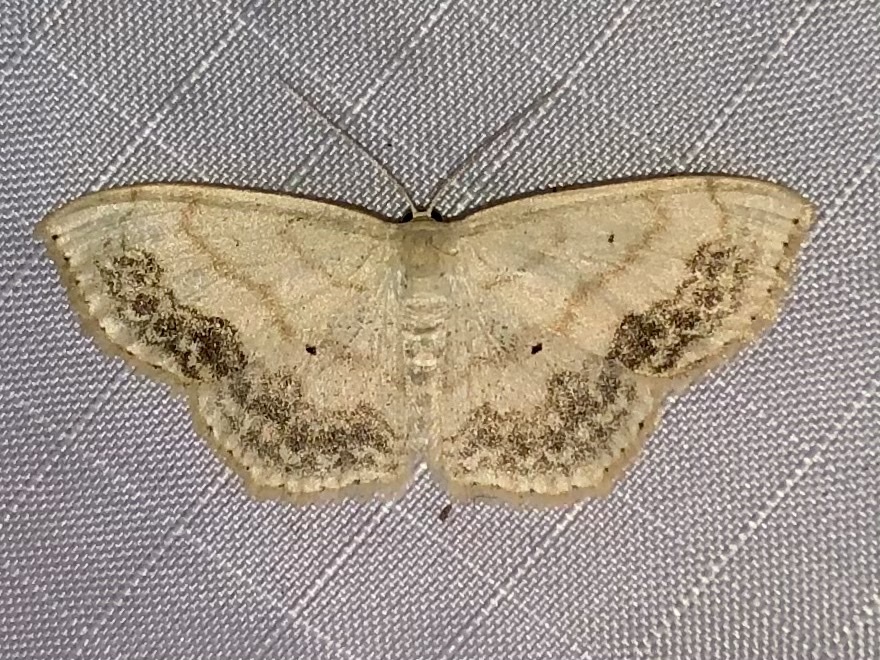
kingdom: Animalia
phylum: Arthropoda
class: Insecta
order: Lepidoptera
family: Geometridae
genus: Scopula
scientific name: Scopula limboundata
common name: Large lace border
